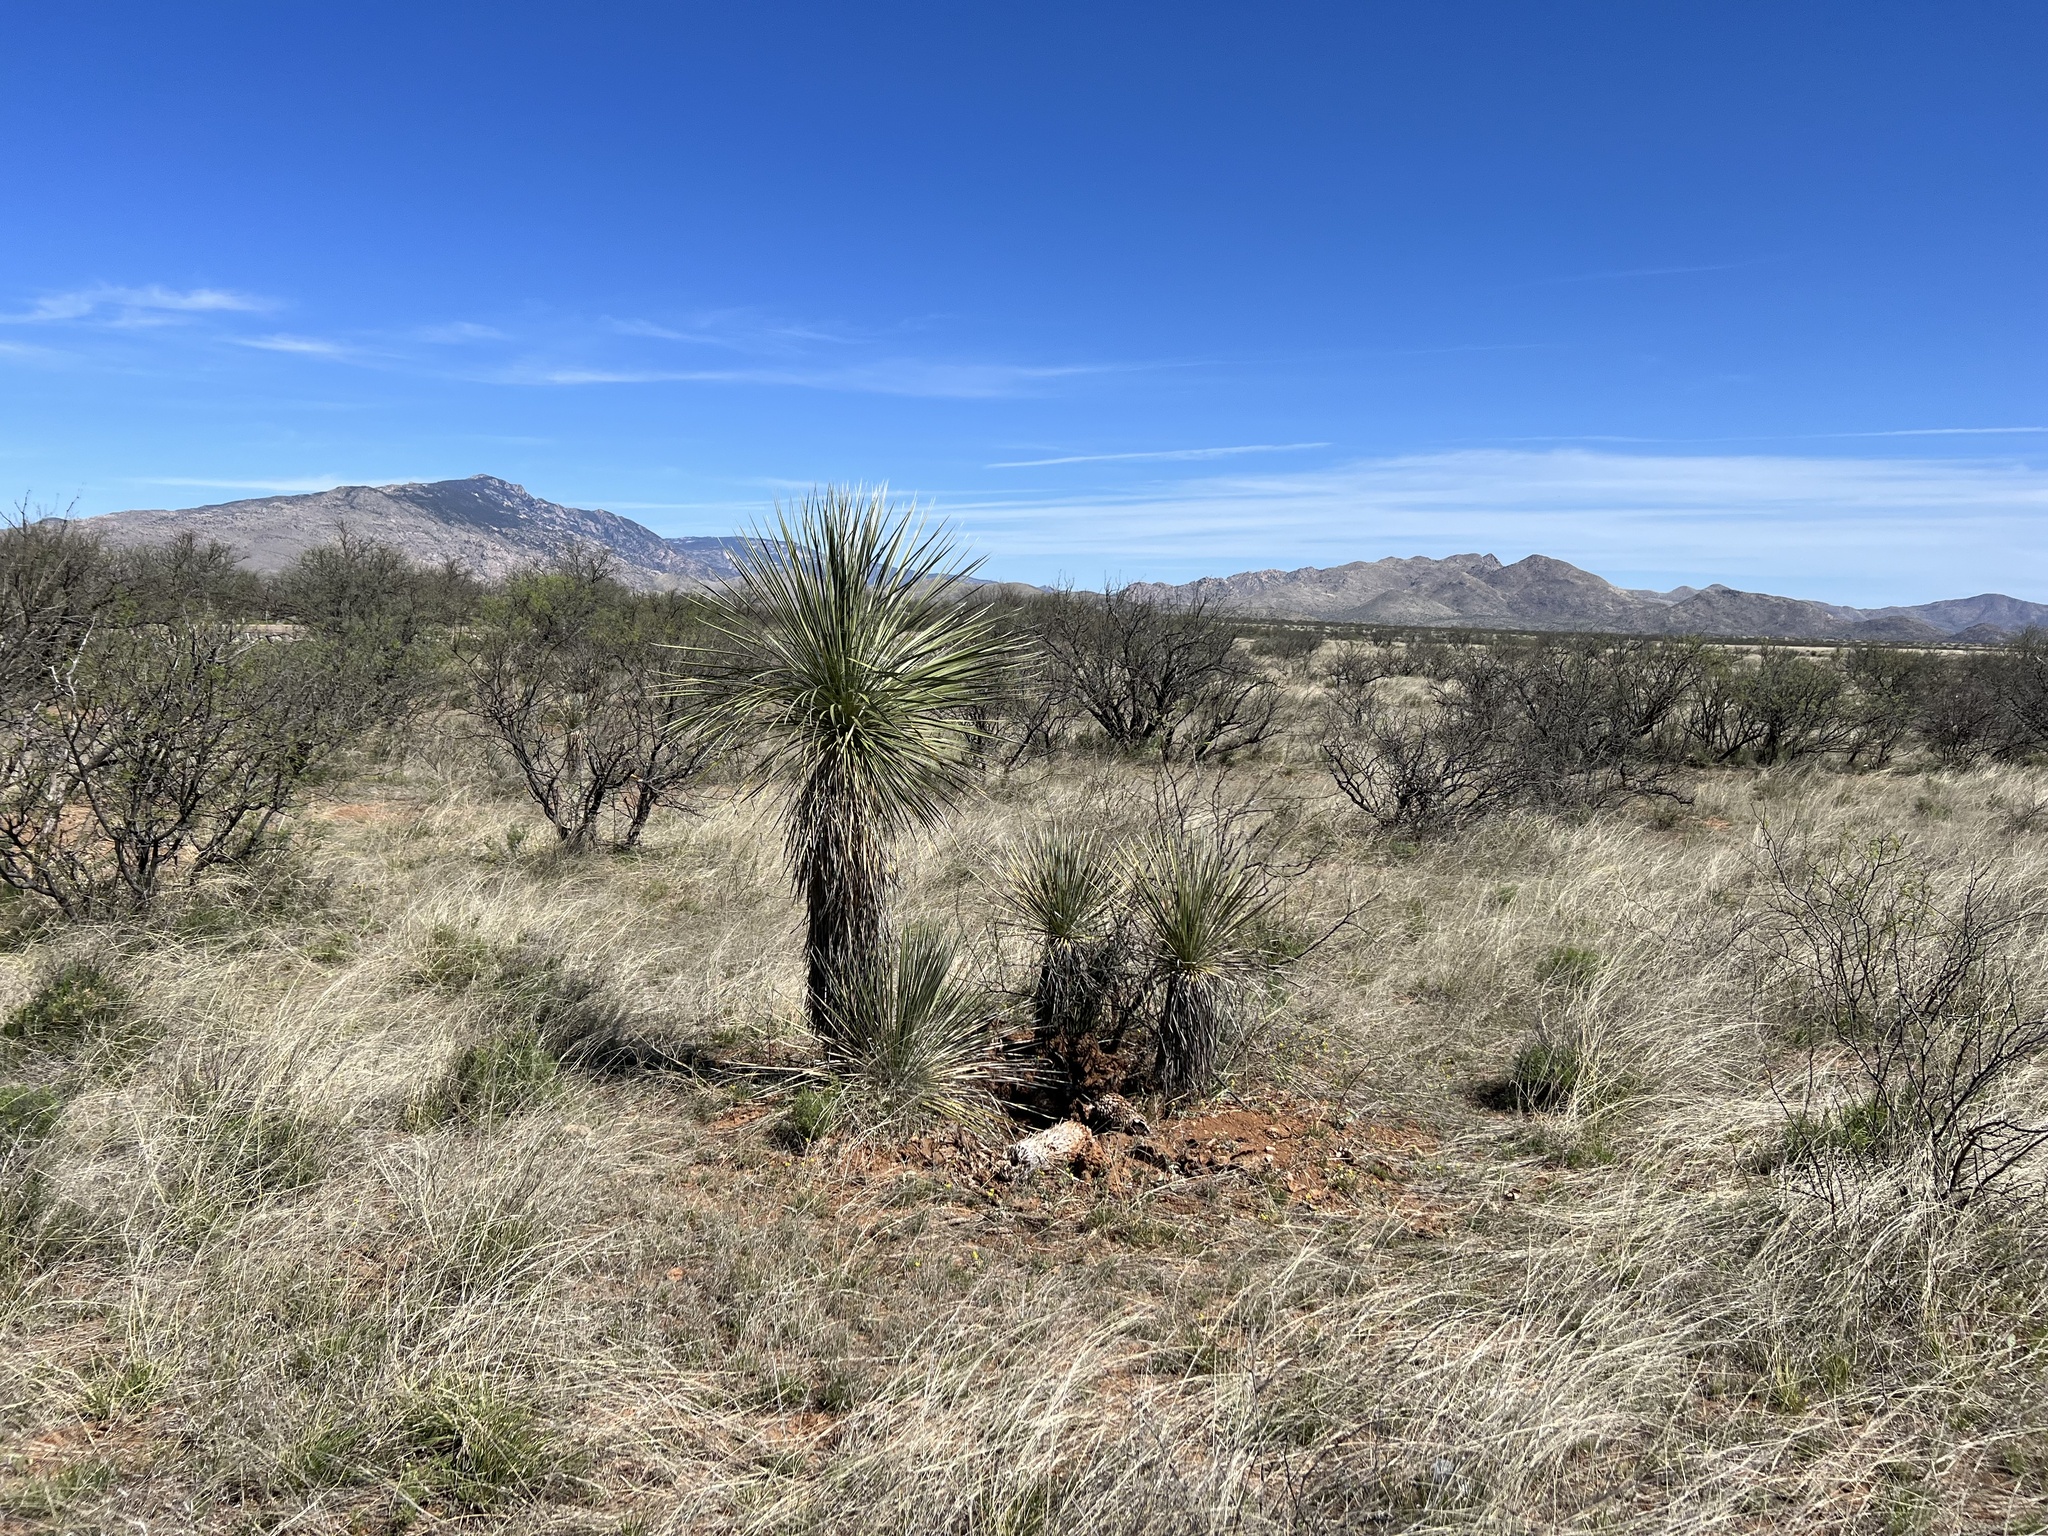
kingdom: Plantae
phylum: Tracheophyta
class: Liliopsida
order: Asparagales
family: Asparagaceae
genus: Yucca
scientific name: Yucca elata
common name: Palmella
